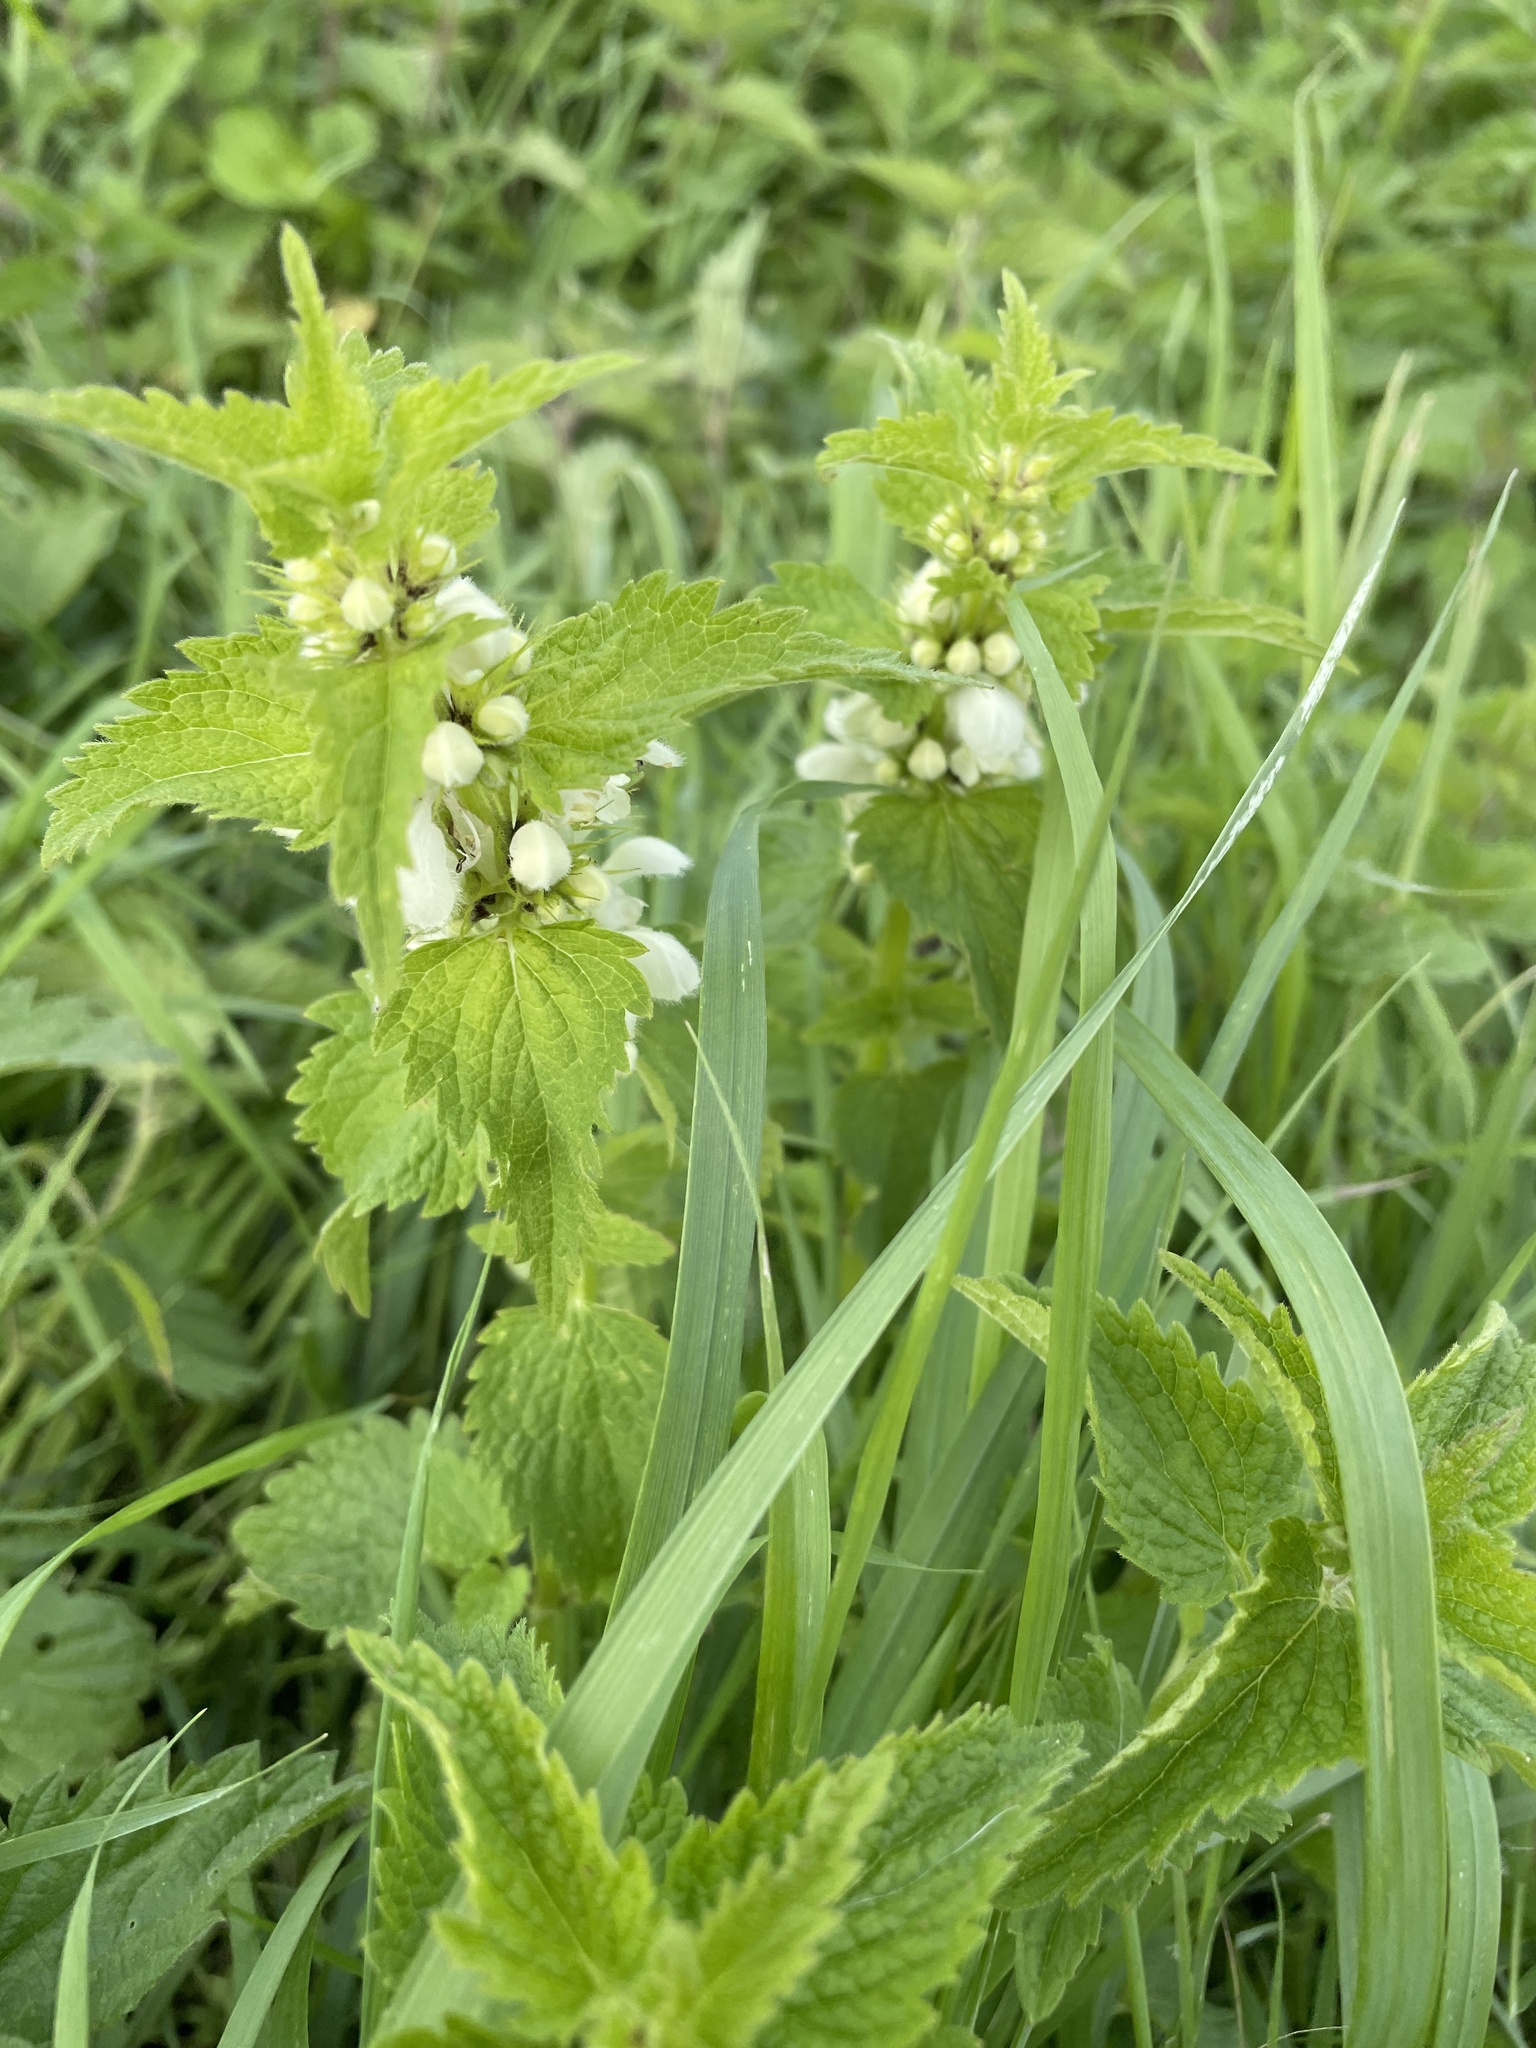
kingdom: Plantae
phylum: Tracheophyta
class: Magnoliopsida
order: Lamiales
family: Lamiaceae
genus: Lamium
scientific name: Lamium album
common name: White dead-nettle
